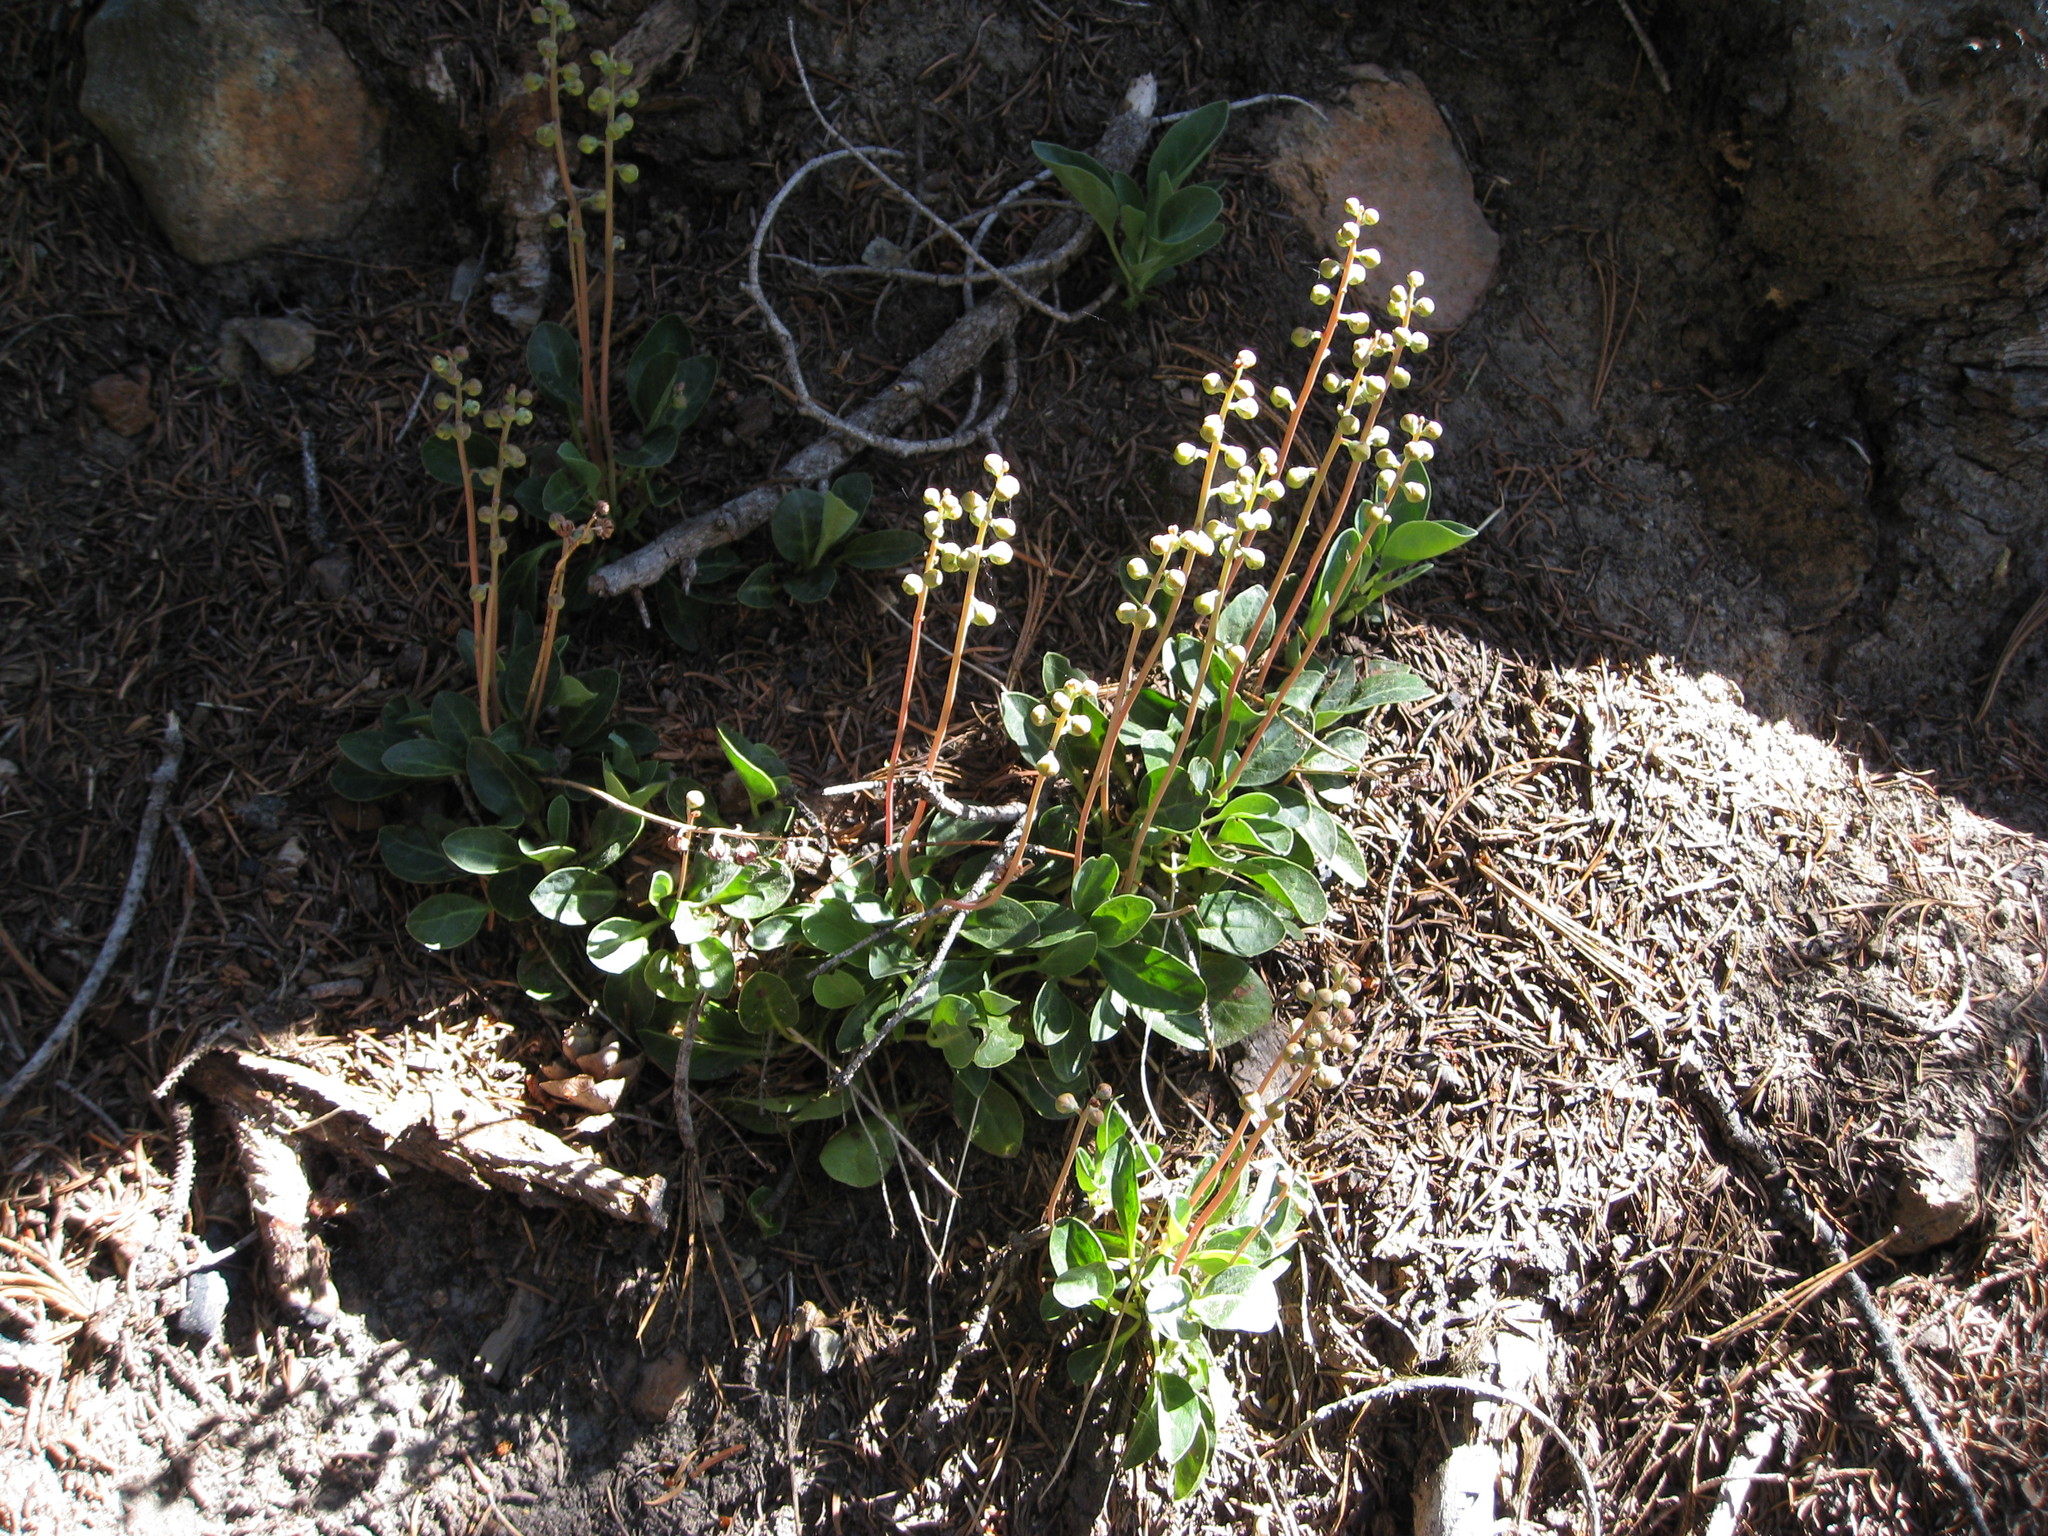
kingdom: Plantae
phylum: Tracheophyta
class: Magnoliopsida
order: Ericales
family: Ericaceae
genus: Pyrola
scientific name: Pyrola dentata
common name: Tooth-leaved wintergreen
